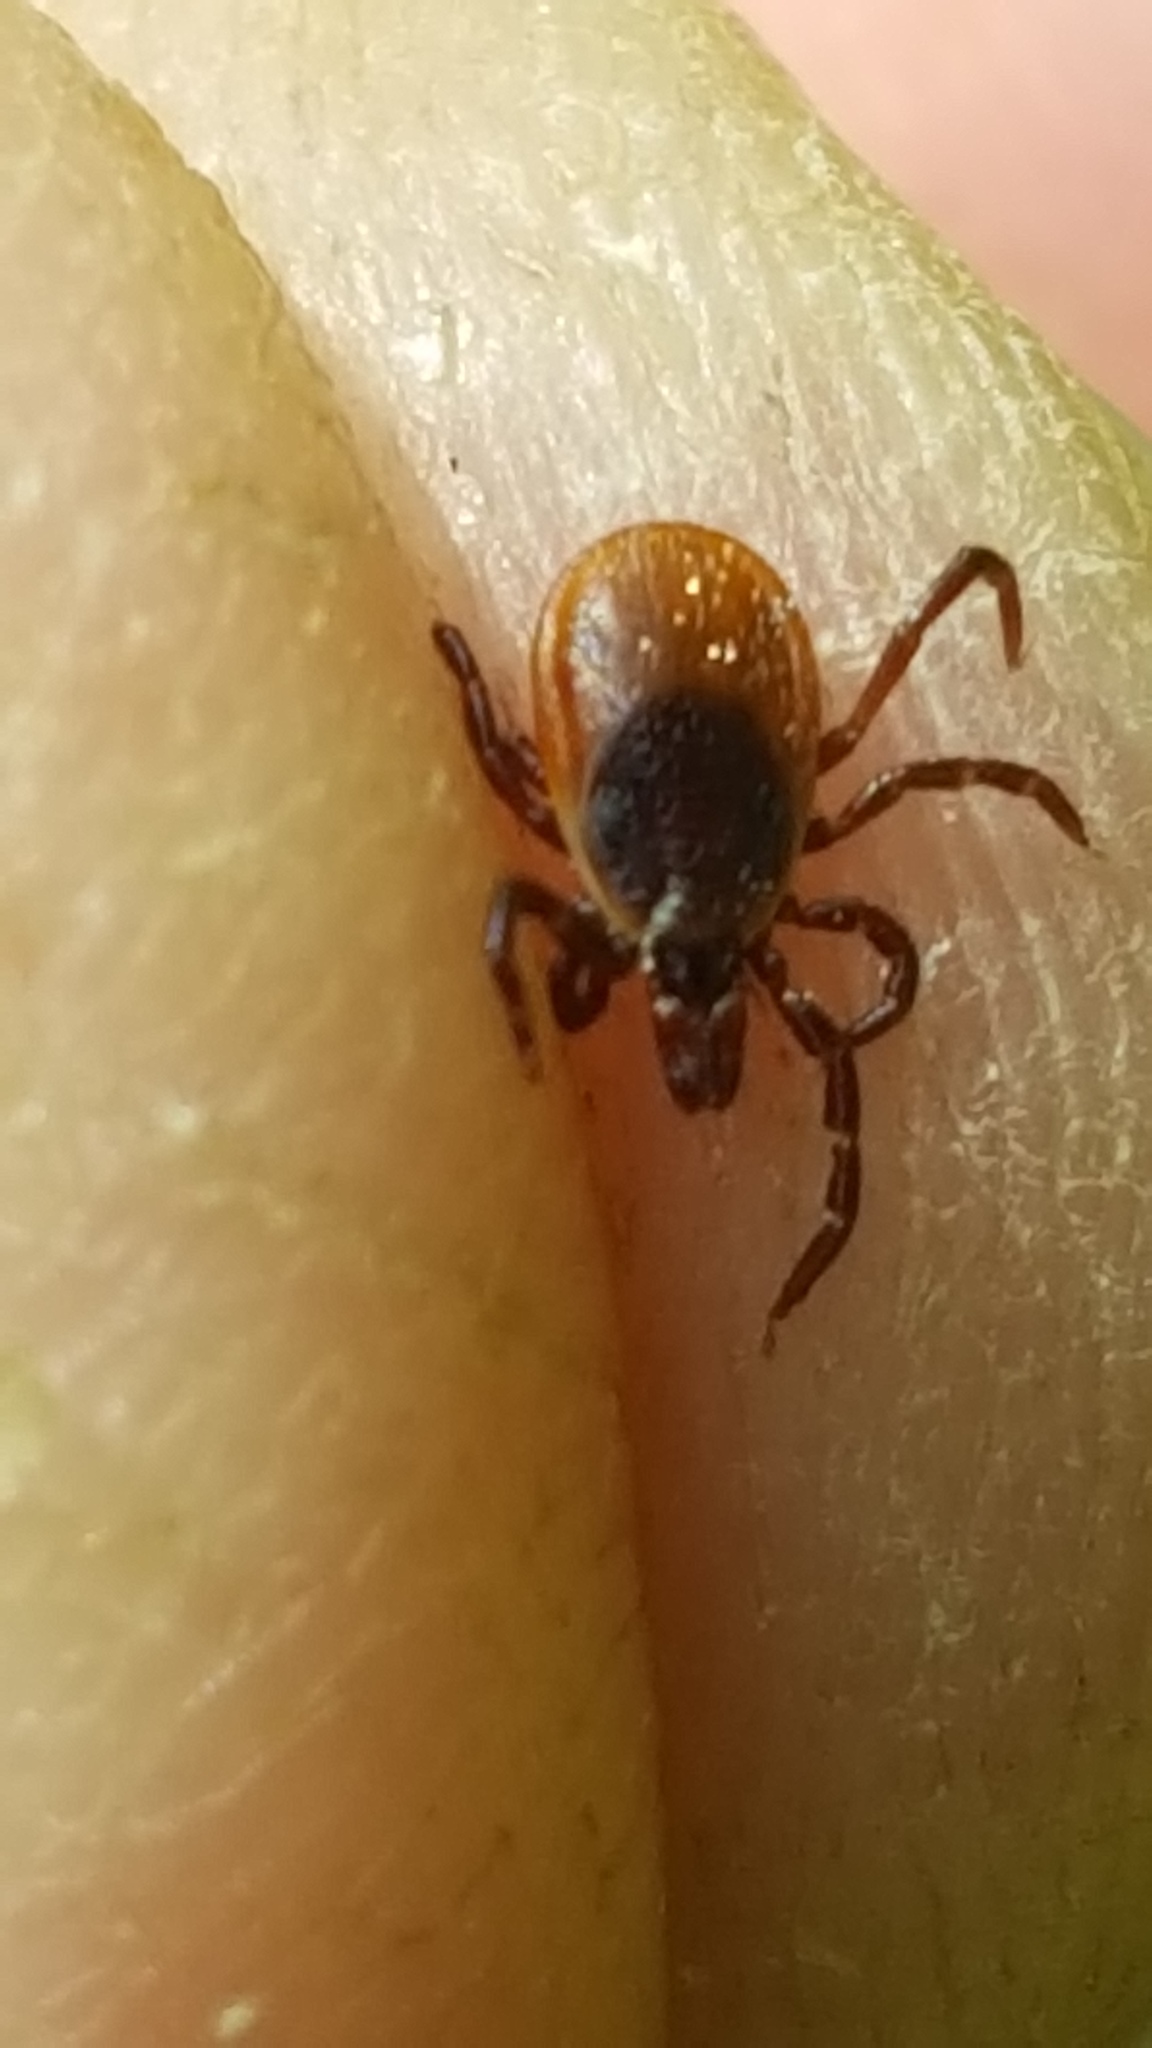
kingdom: Animalia
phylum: Arthropoda
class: Arachnida
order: Ixodida
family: Ixodidae
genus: Ixodes
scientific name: Ixodes scapularis
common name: Black legged tick
